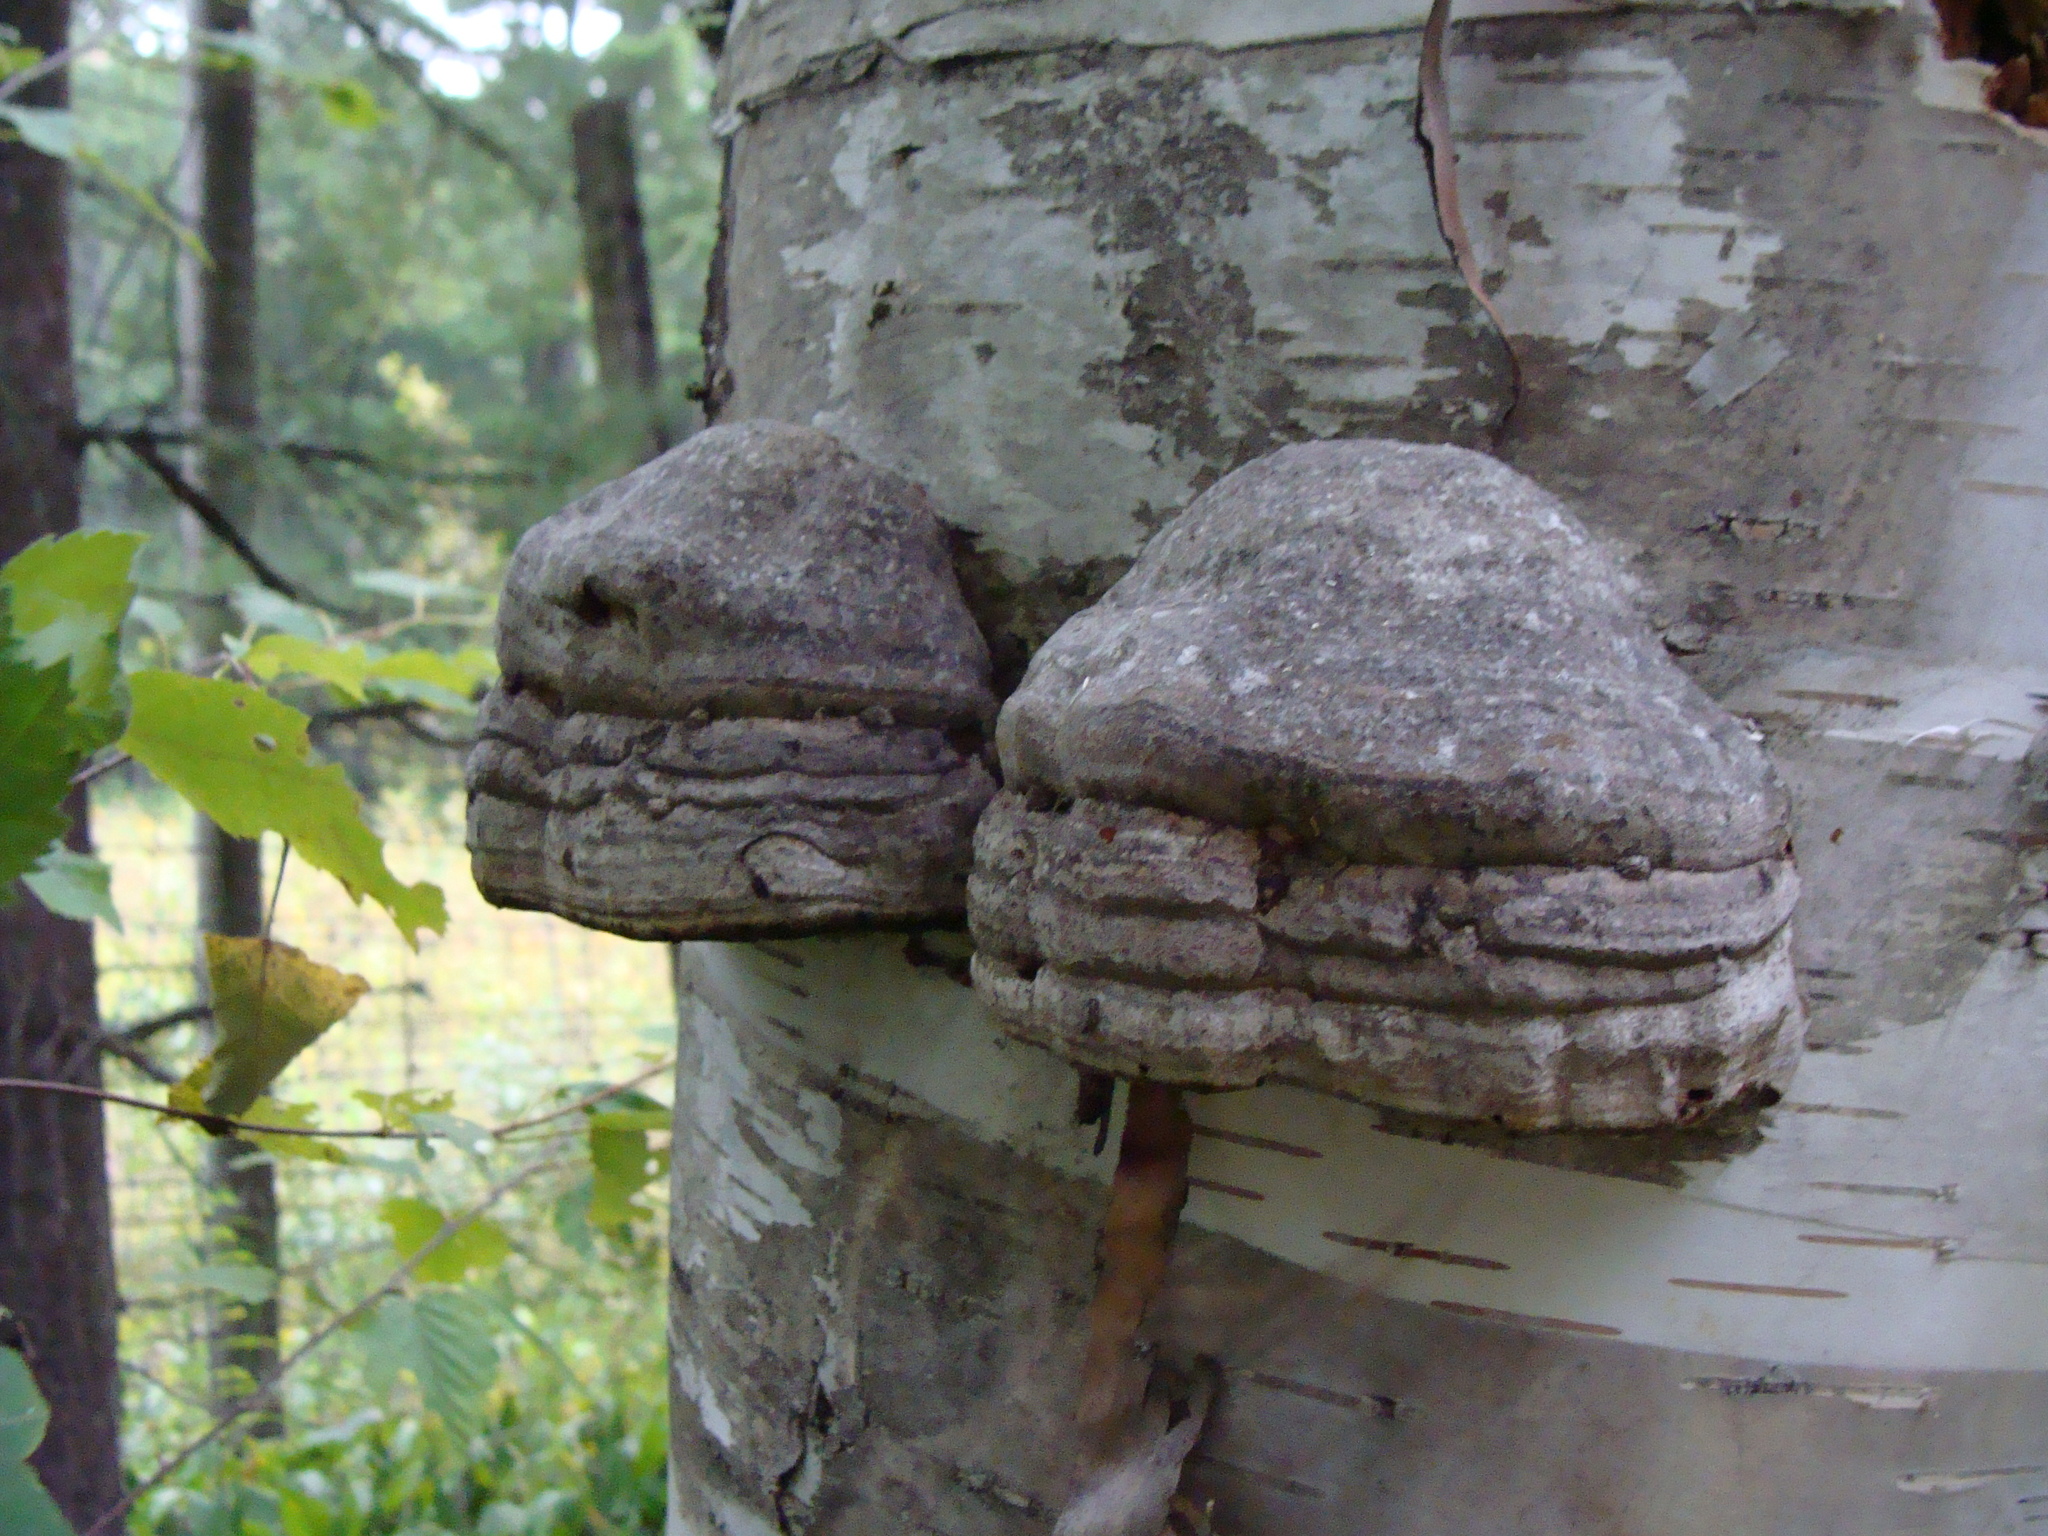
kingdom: Fungi
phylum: Basidiomycota
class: Agaricomycetes
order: Polyporales
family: Polyporaceae
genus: Fomes
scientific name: Fomes fomentarius
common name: Hoof fungus
